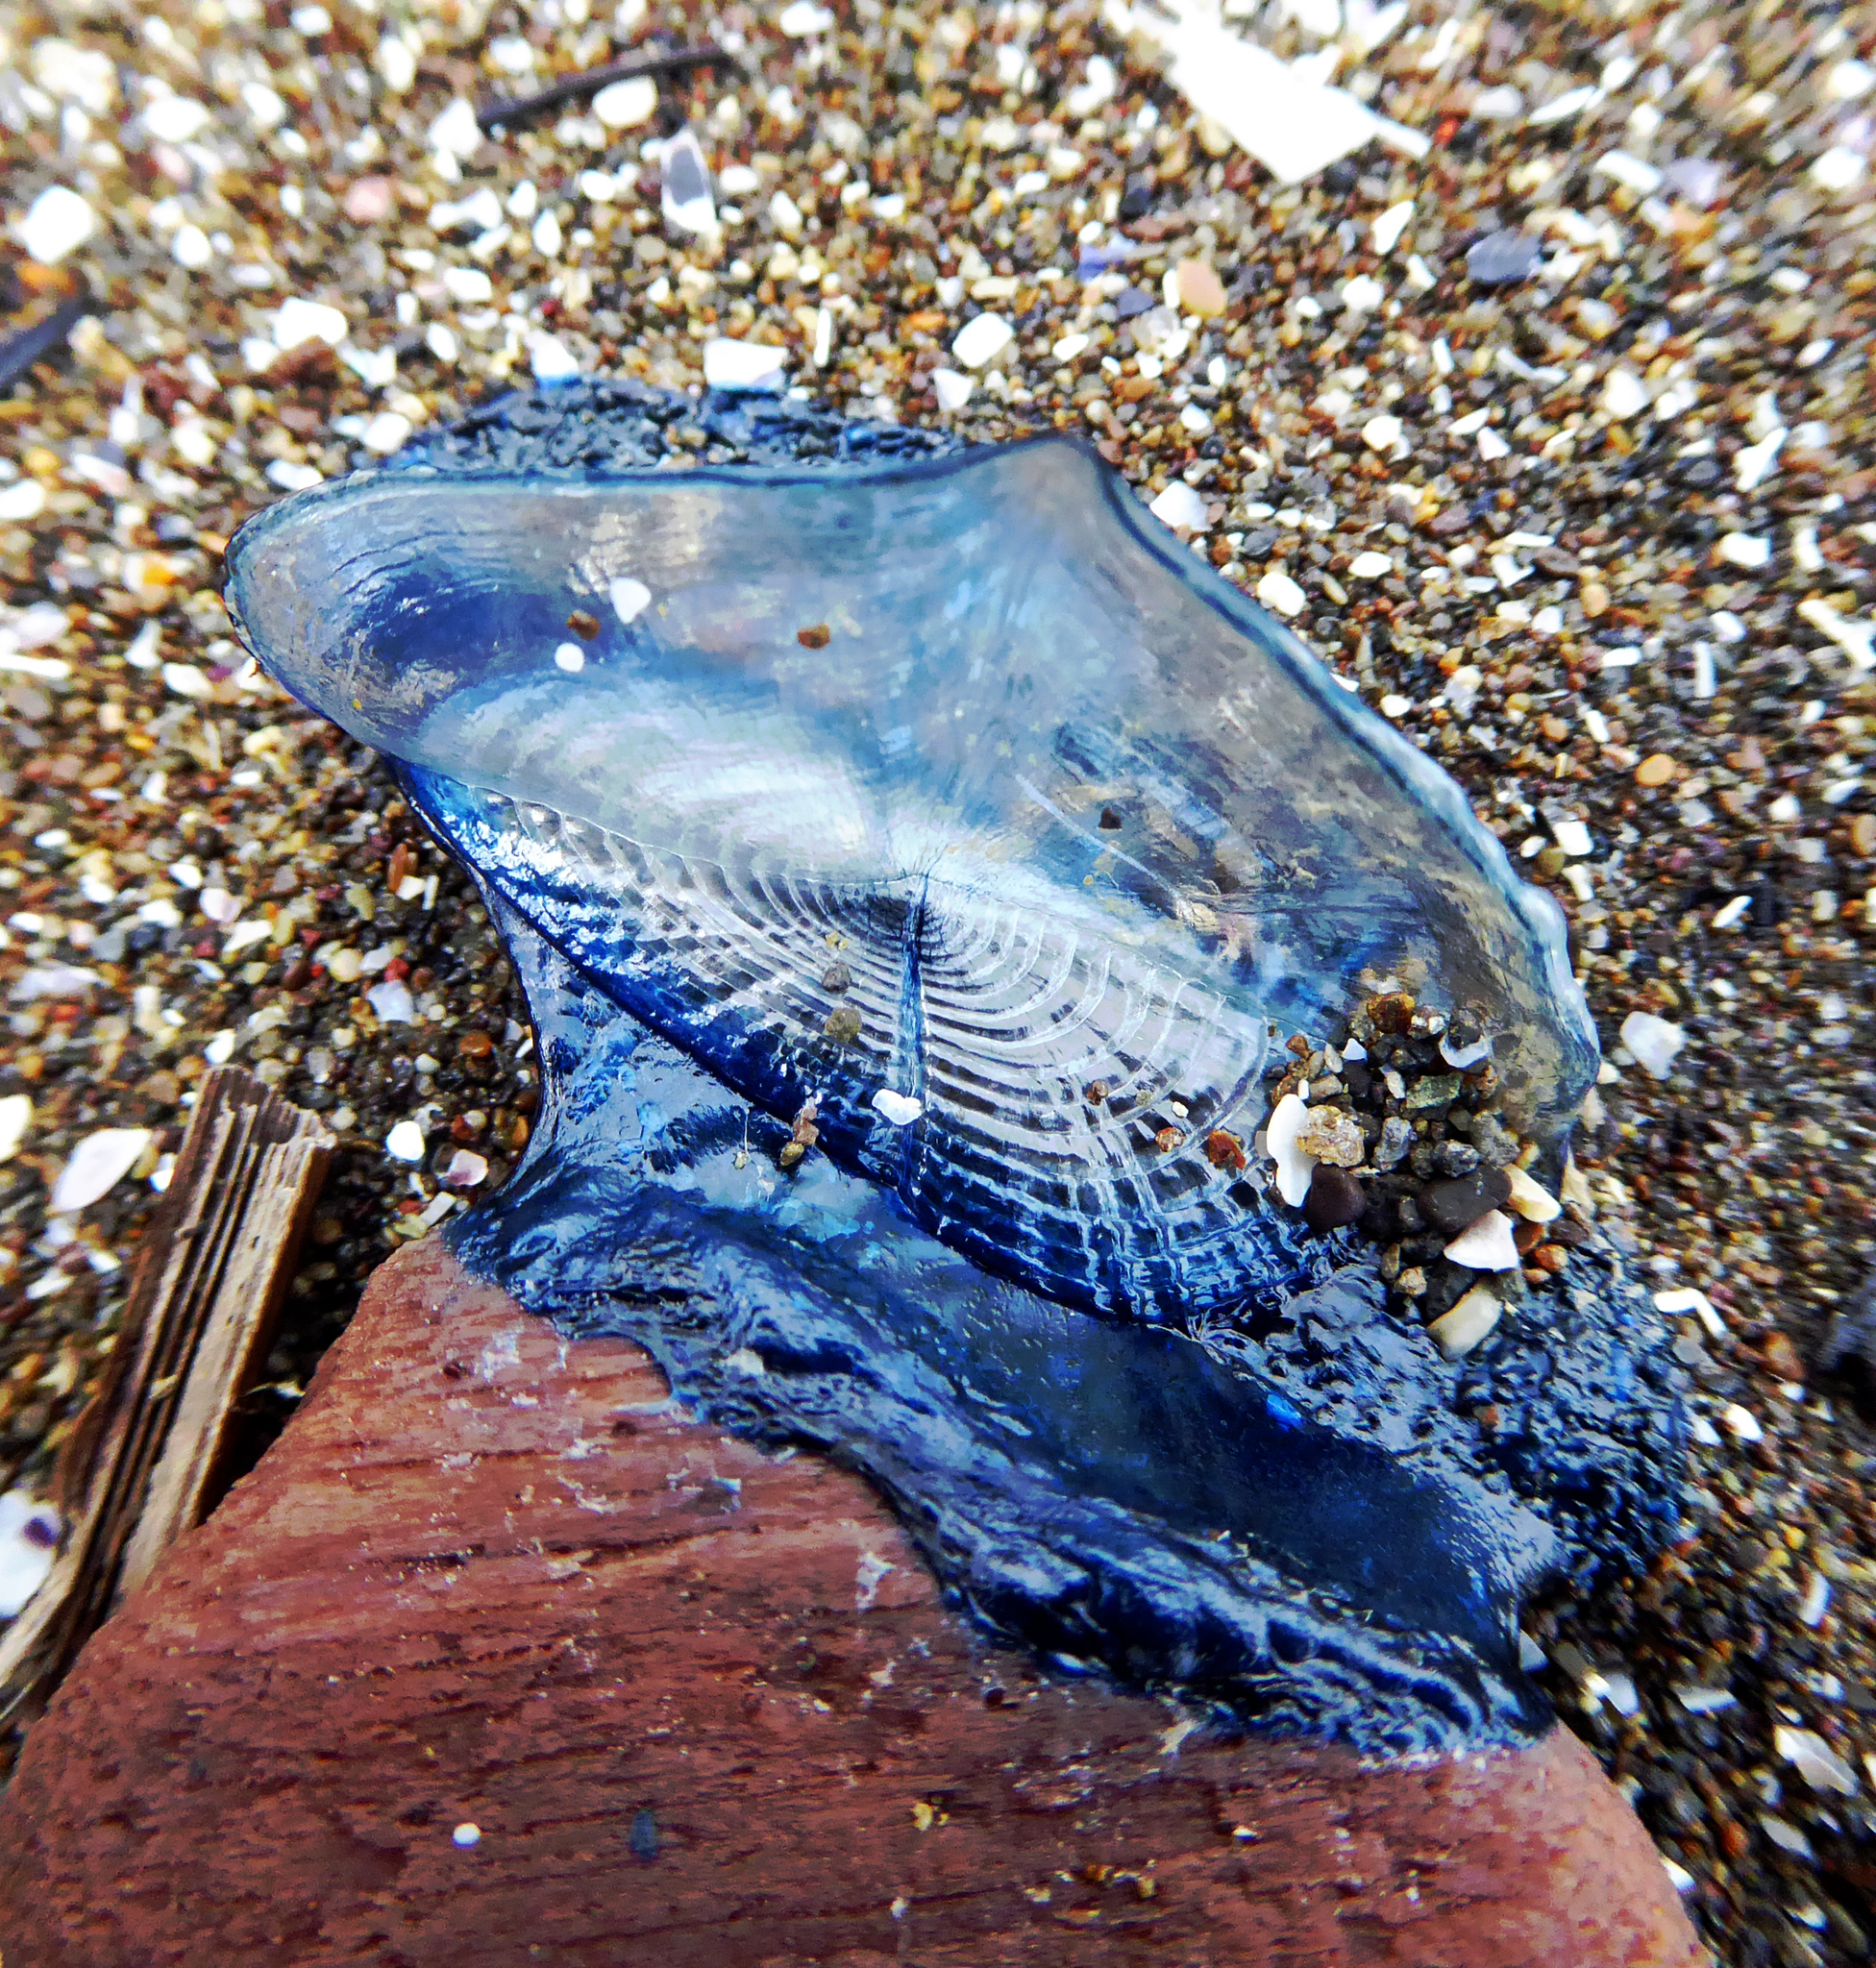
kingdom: Animalia
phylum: Cnidaria
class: Hydrozoa
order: Anthoathecata
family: Porpitidae
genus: Velella
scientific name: Velella velella
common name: By-the-wind-sailor
